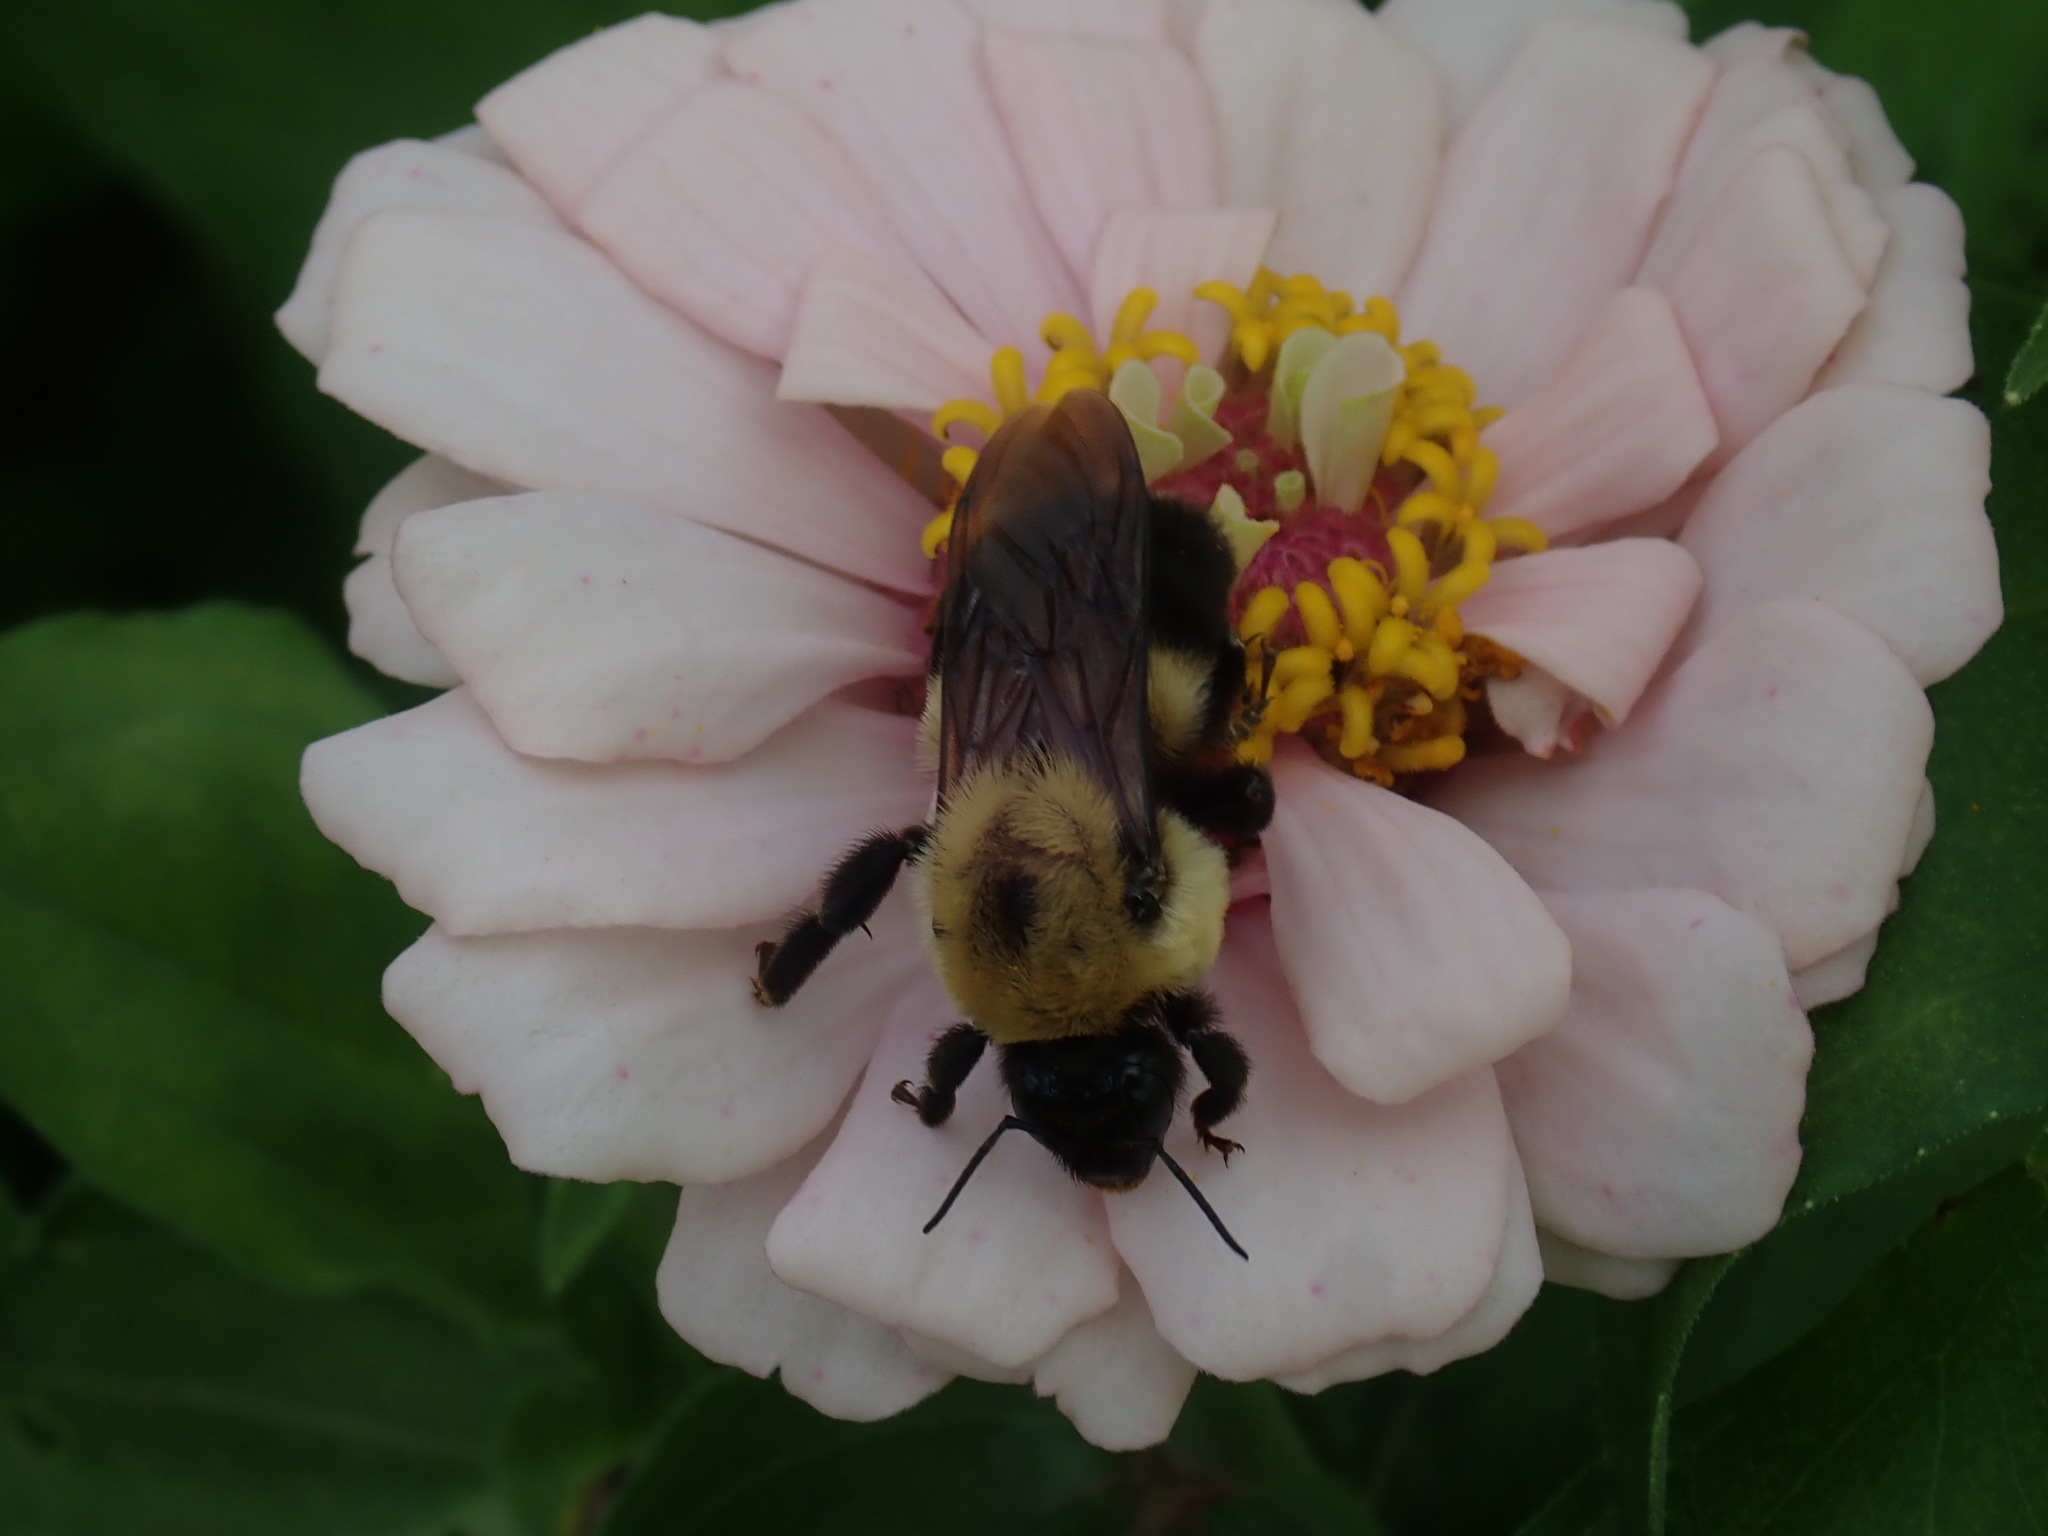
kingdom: Animalia
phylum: Arthropoda
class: Insecta
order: Hymenoptera
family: Apidae
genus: Bombus
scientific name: Bombus griseocollis
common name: Brown-belted bumble bee
